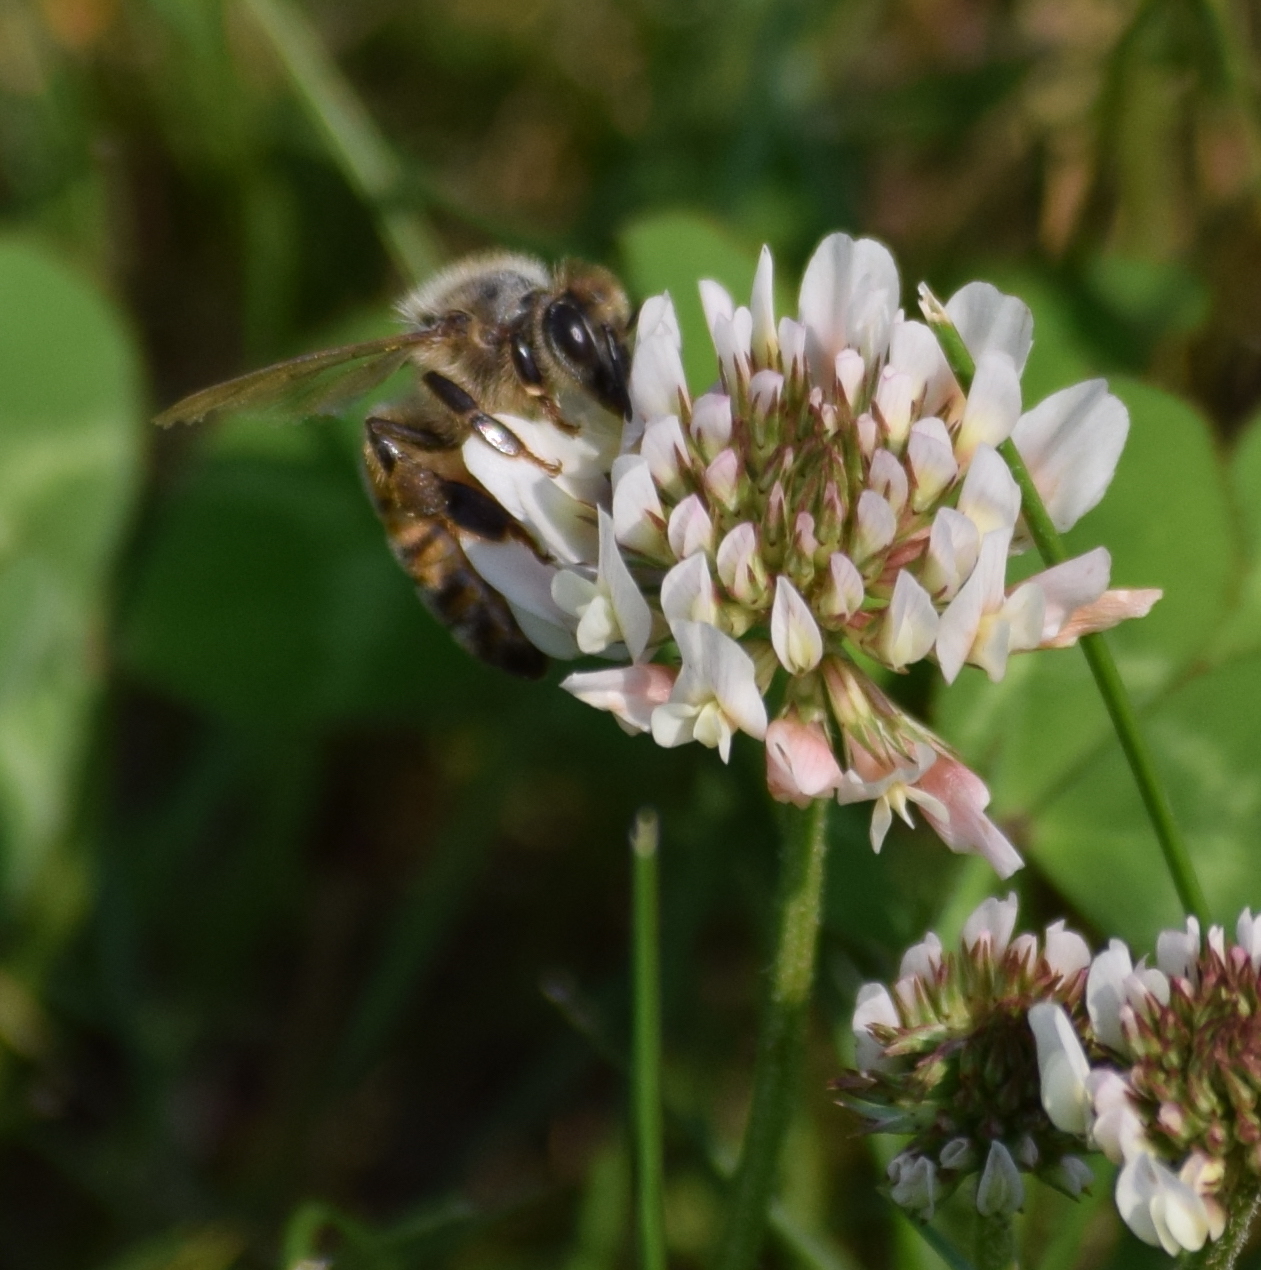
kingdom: Animalia
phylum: Arthropoda
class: Insecta
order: Hymenoptera
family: Apidae
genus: Apis
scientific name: Apis mellifera
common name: Honey bee
